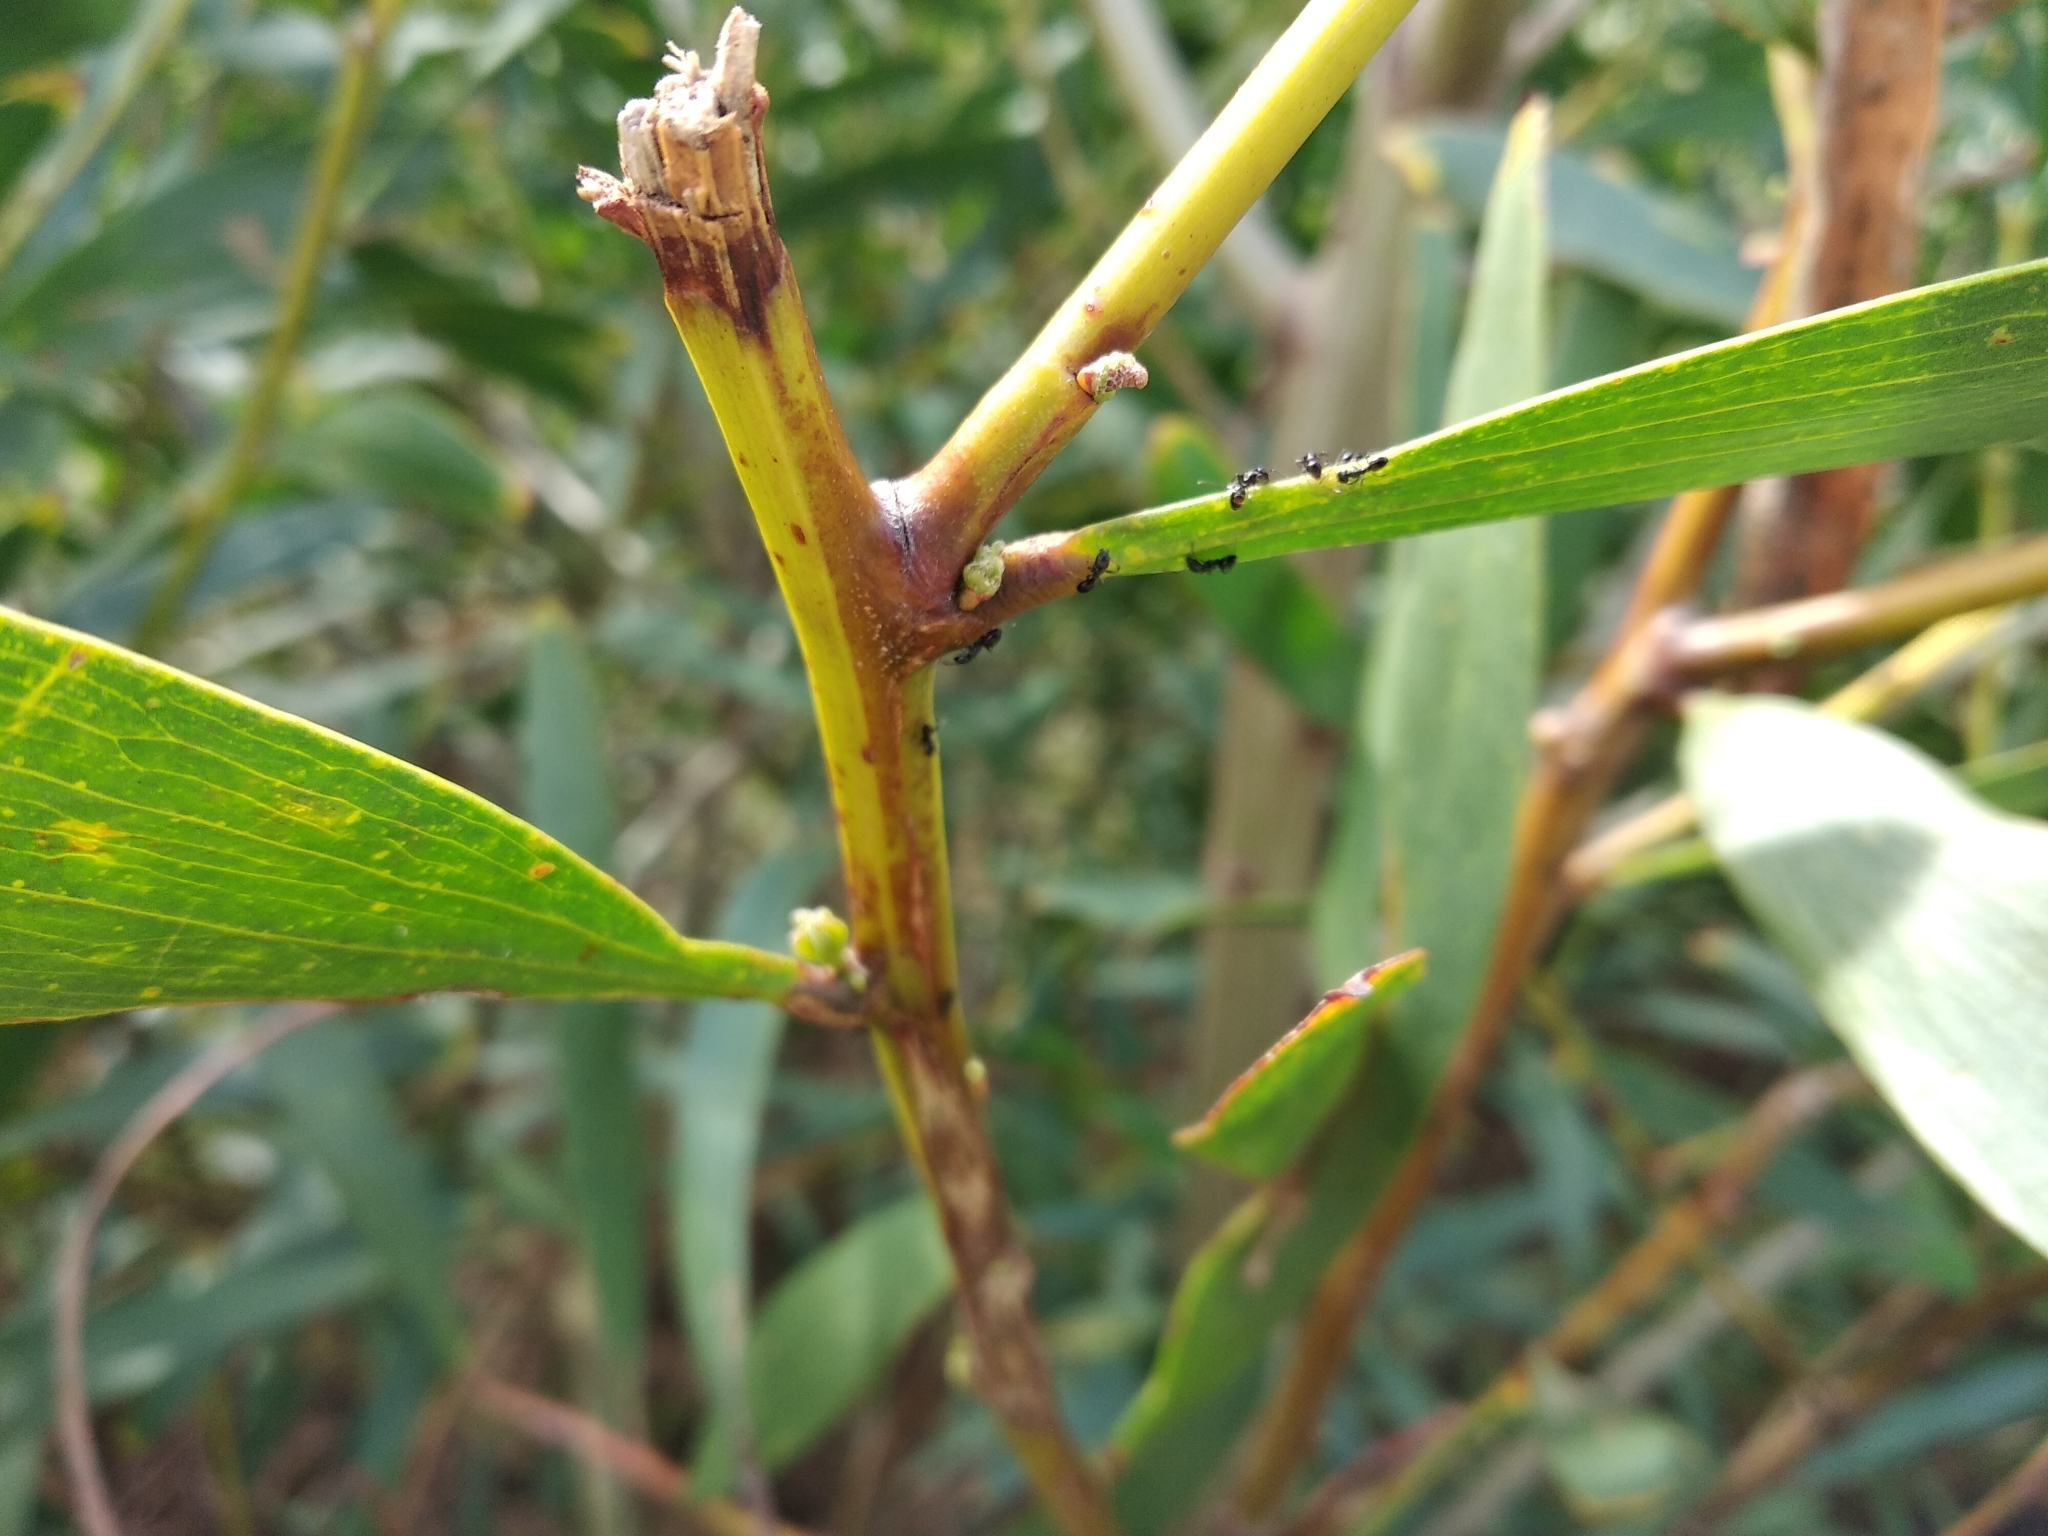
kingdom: Animalia
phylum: Arthropoda
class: Insecta
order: Hymenoptera
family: Formicidae
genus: Ochetellus
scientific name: Ochetellus glaber
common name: Ant
